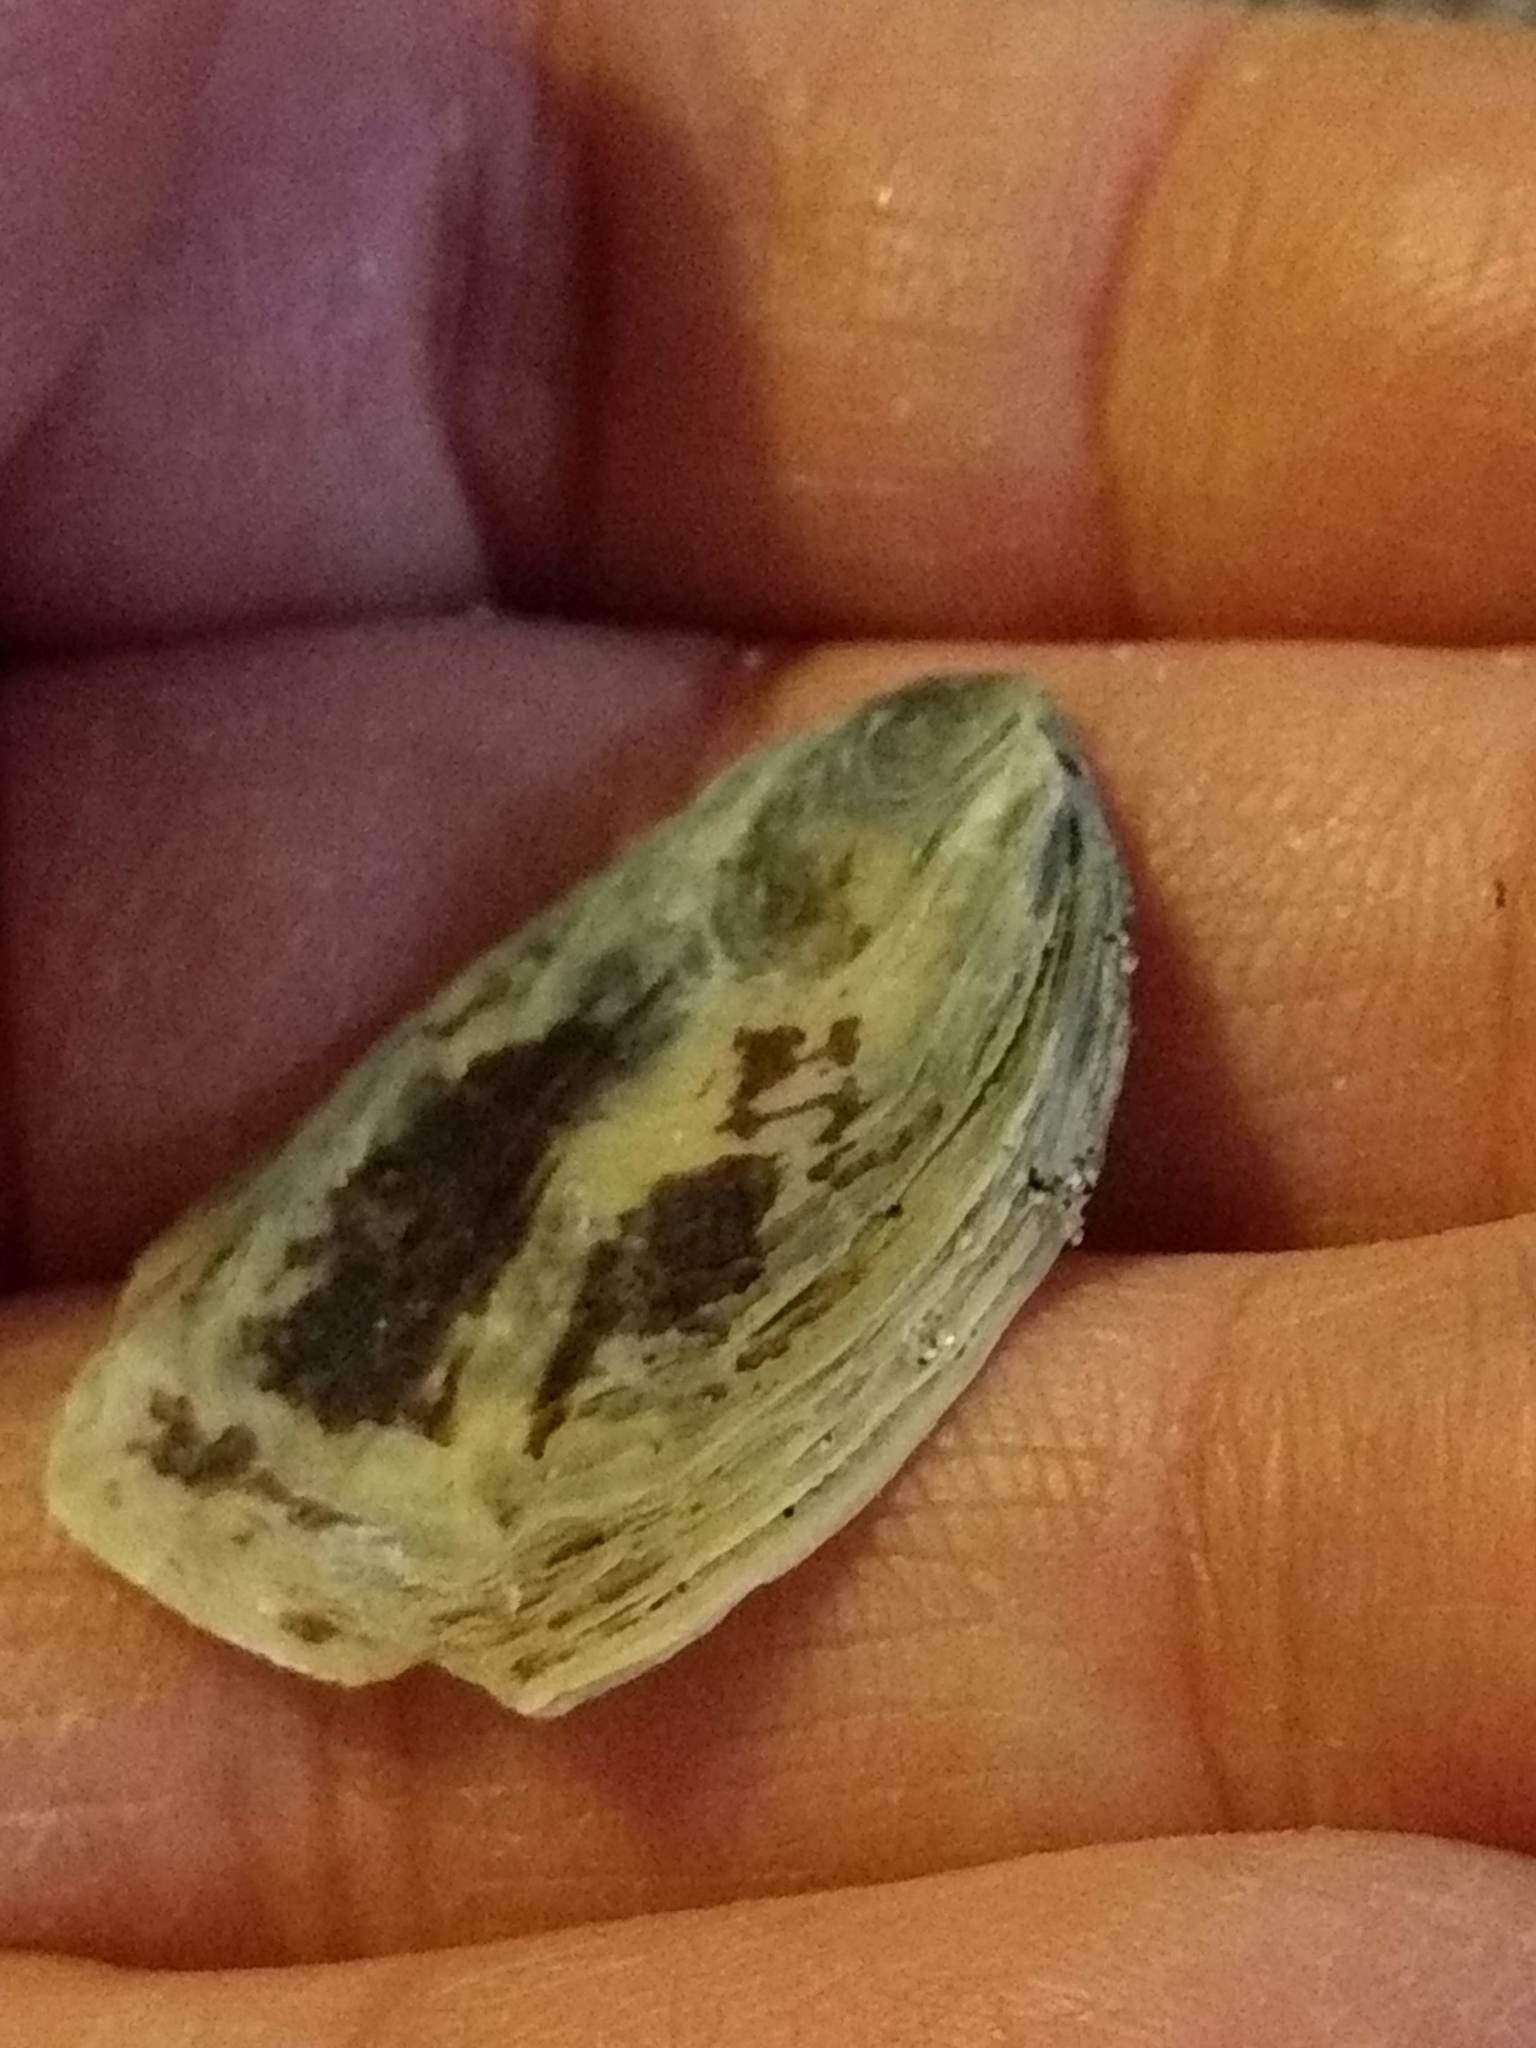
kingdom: Animalia
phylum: Mollusca
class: Bivalvia
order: Ostreida
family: Ostreidae
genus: Ostrea
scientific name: Ostrea lurida
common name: Olympia flat oyster
